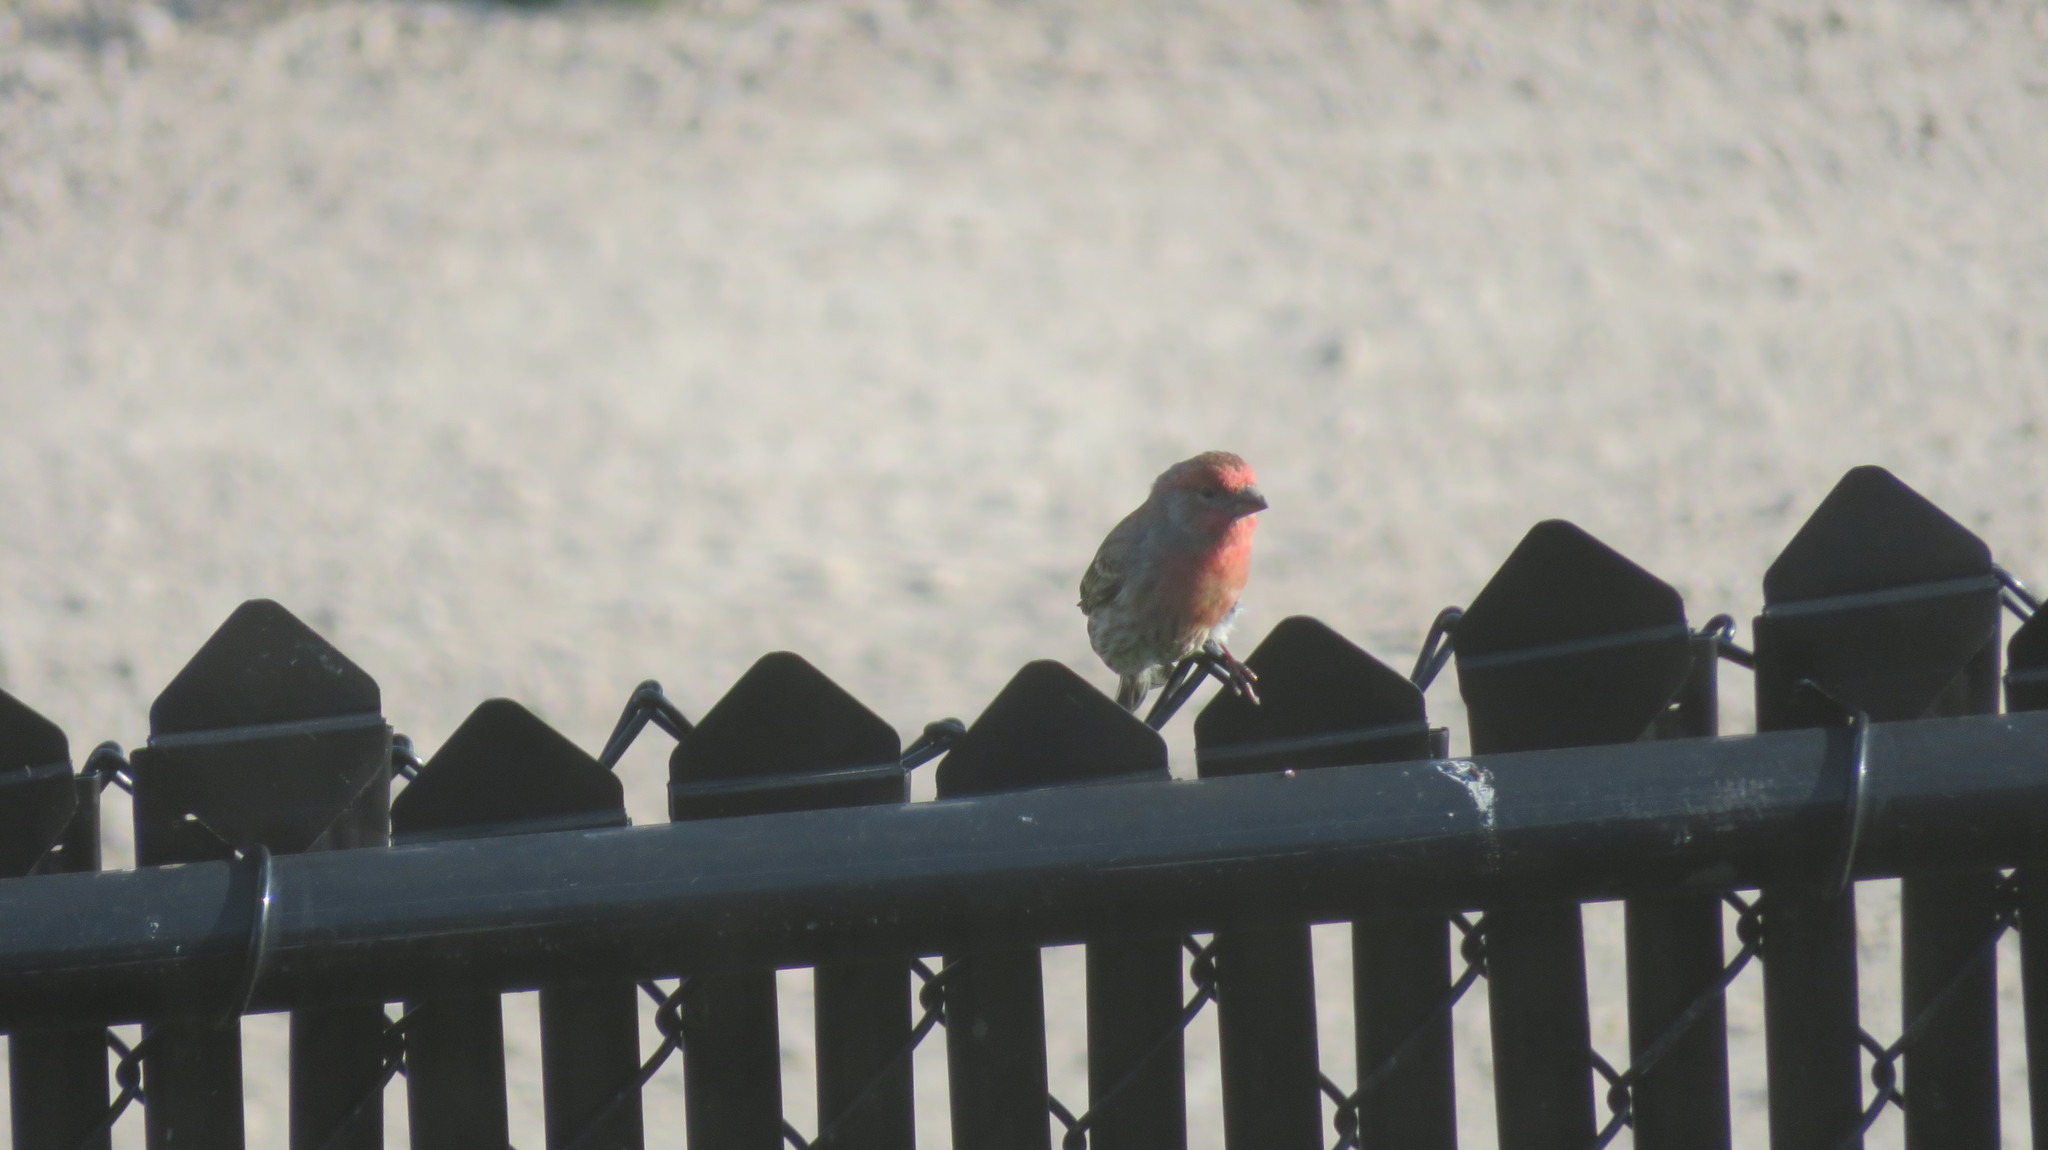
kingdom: Animalia
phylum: Chordata
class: Aves
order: Passeriformes
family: Fringillidae
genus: Haemorhous
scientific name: Haemorhous mexicanus
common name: House finch
